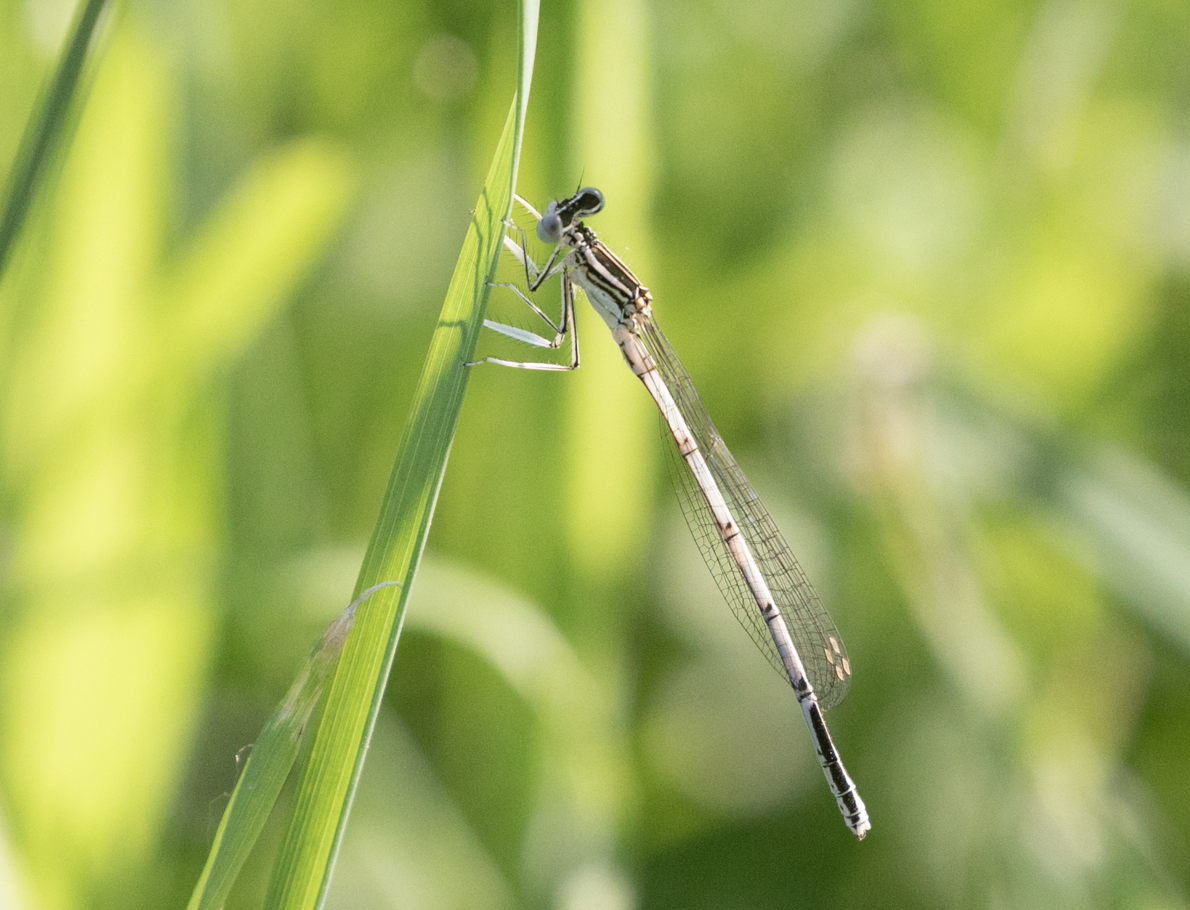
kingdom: Animalia
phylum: Arthropoda
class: Insecta
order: Odonata
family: Platycnemididae
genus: Platycnemis
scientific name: Platycnemis pennipes
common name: White-legged damselfly
